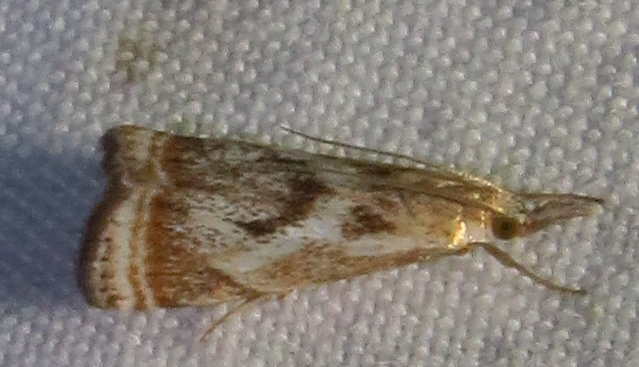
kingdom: Animalia
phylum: Arthropoda
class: Insecta
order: Lepidoptera
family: Crambidae
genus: Microcrambus
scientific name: Microcrambus elegans
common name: Elegant grass-veneer
